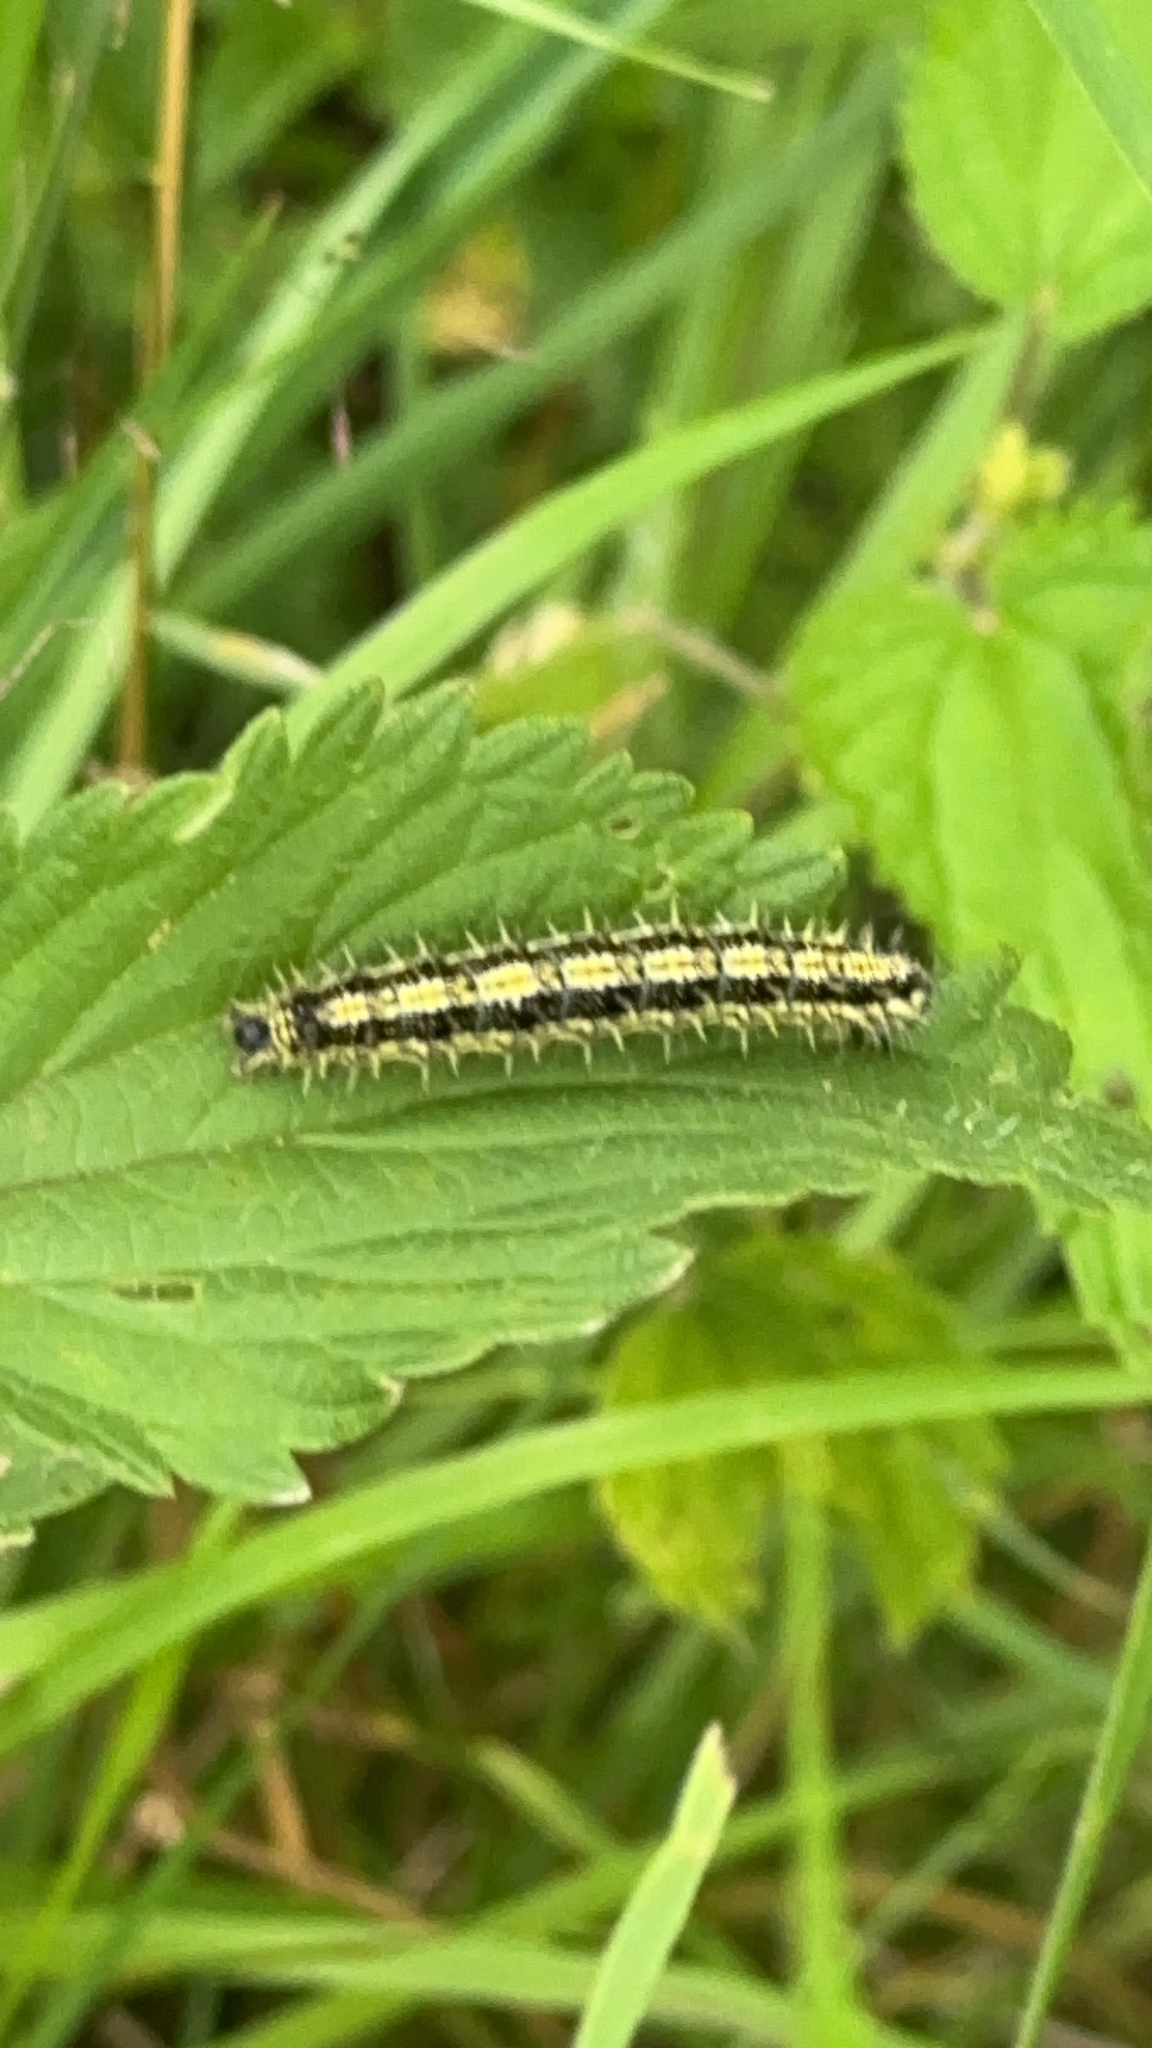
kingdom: Animalia
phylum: Arthropoda
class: Insecta
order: Lepidoptera
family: Nymphalidae
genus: Aglais
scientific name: Aglais urticae
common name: Small tortoiseshell
